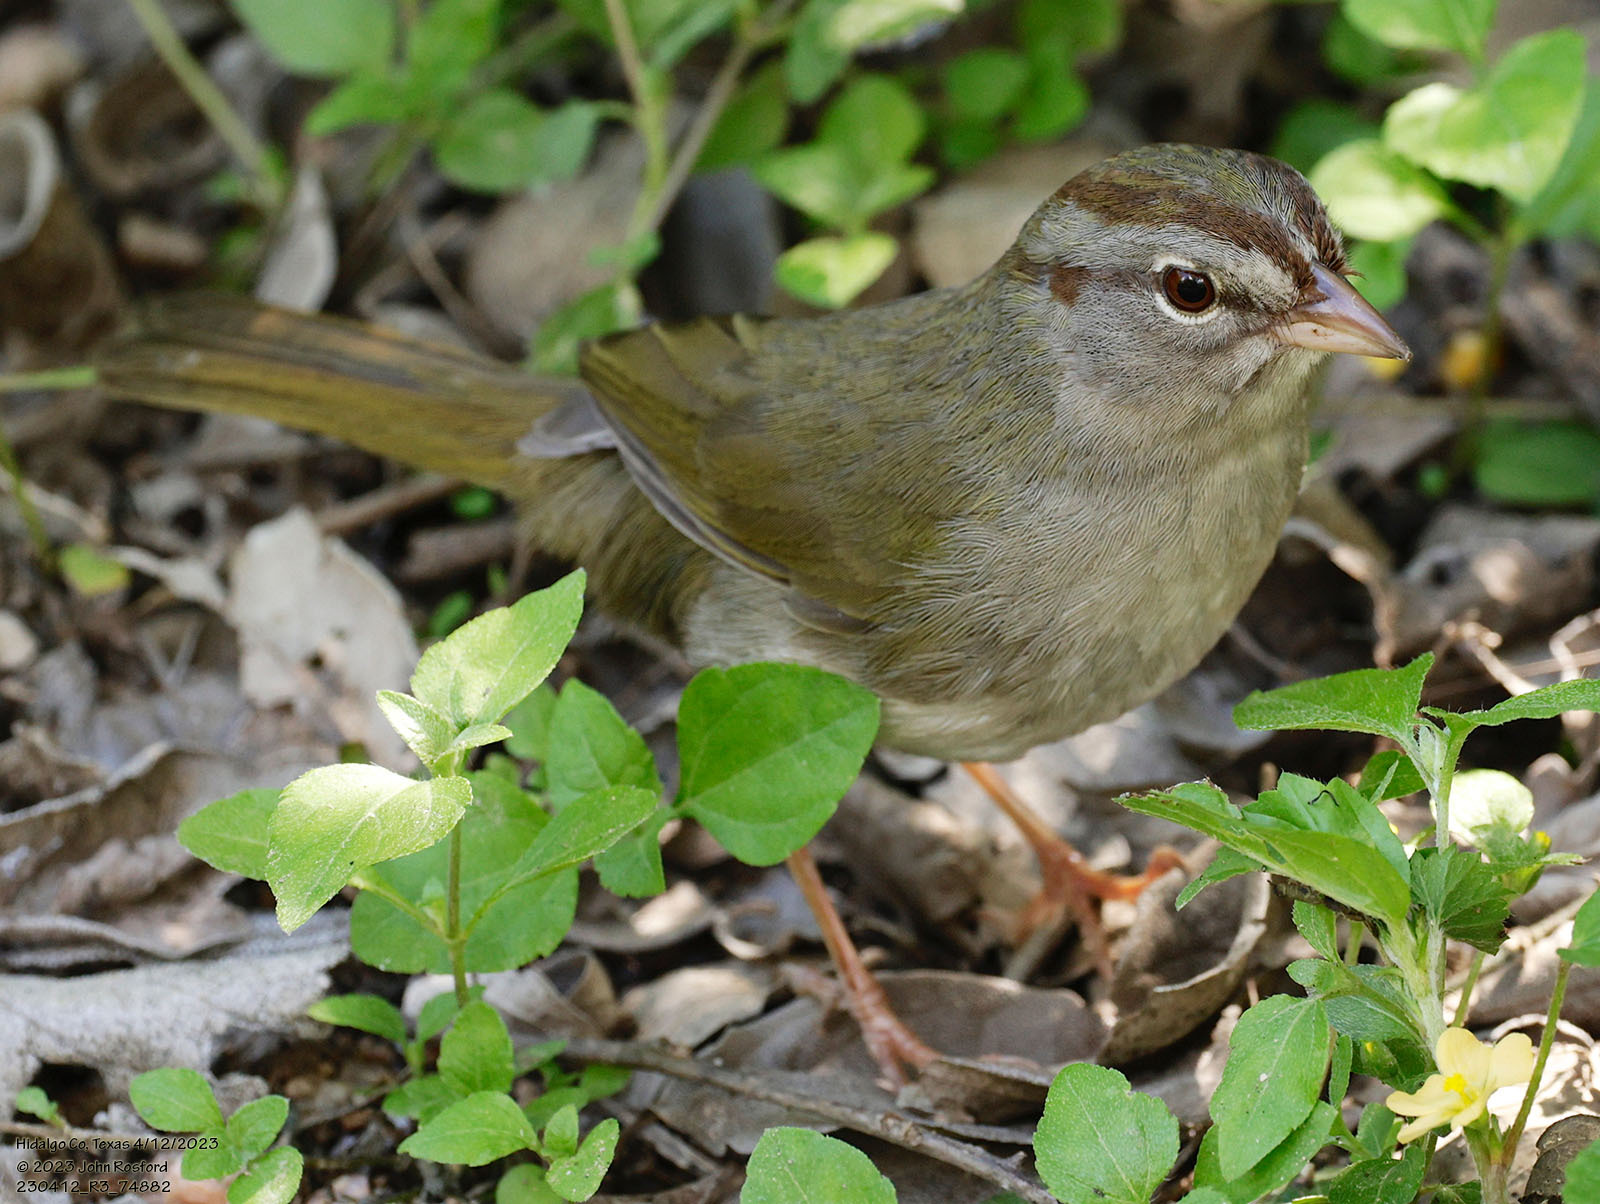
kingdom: Animalia
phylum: Chordata
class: Aves
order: Passeriformes
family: Passerellidae
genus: Arremonops
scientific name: Arremonops rufivirgatus
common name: Olive sparrow
